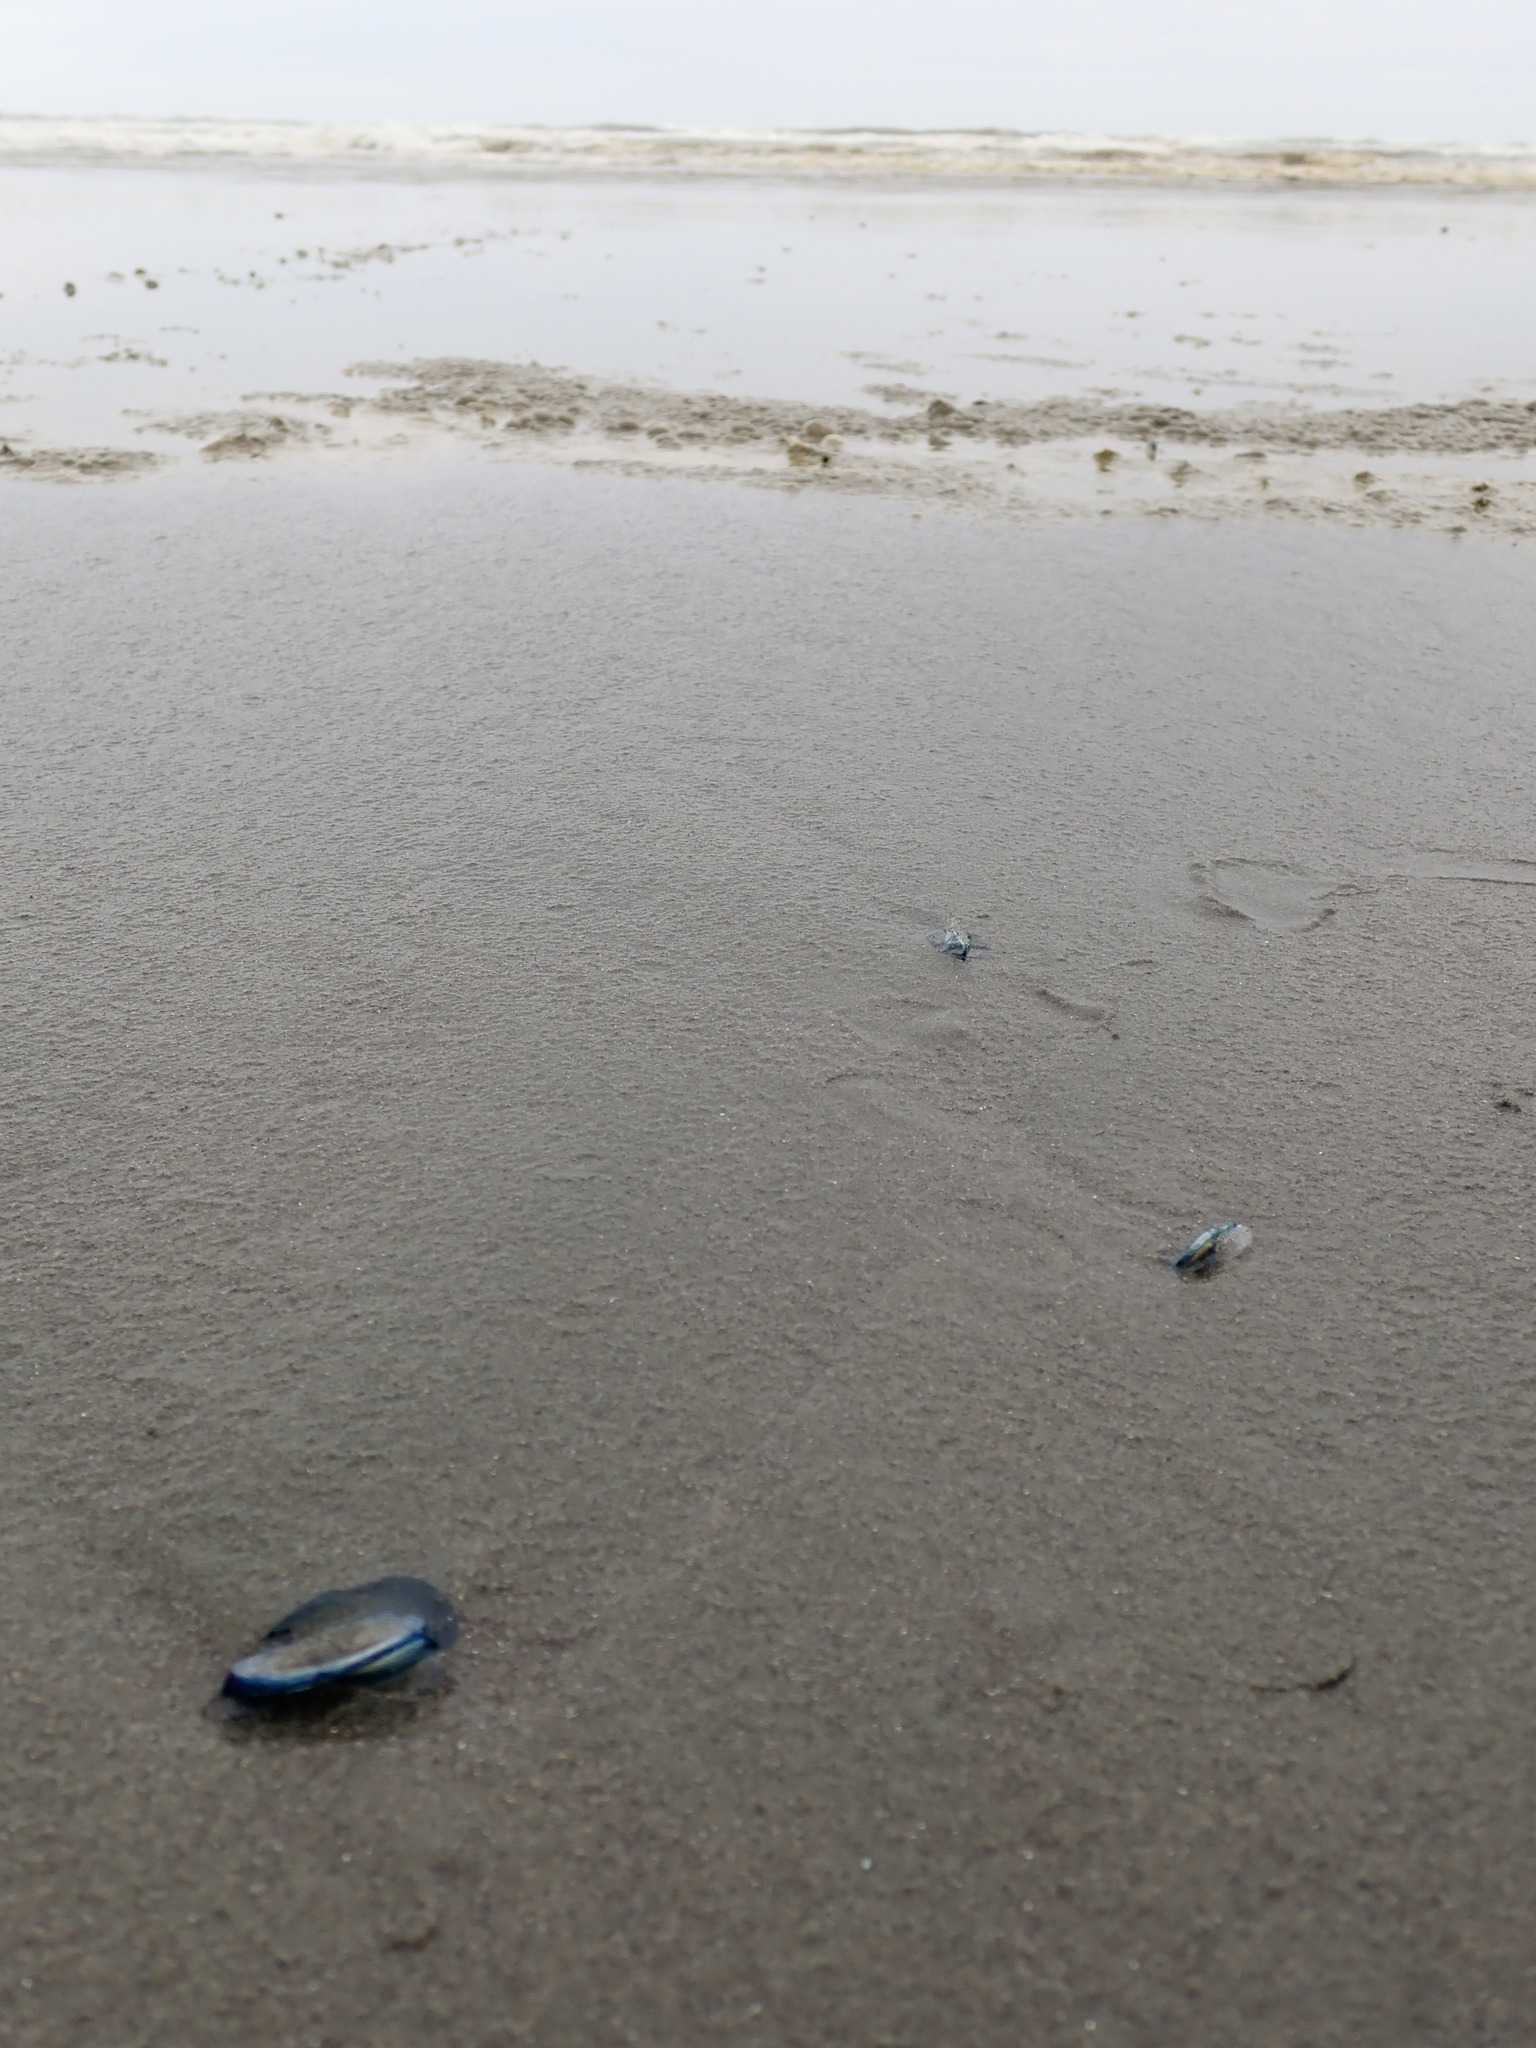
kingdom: Animalia
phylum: Cnidaria
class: Hydrozoa
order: Anthoathecata
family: Porpitidae
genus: Velella
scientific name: Velella velella
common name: By-the-wind-sailor
